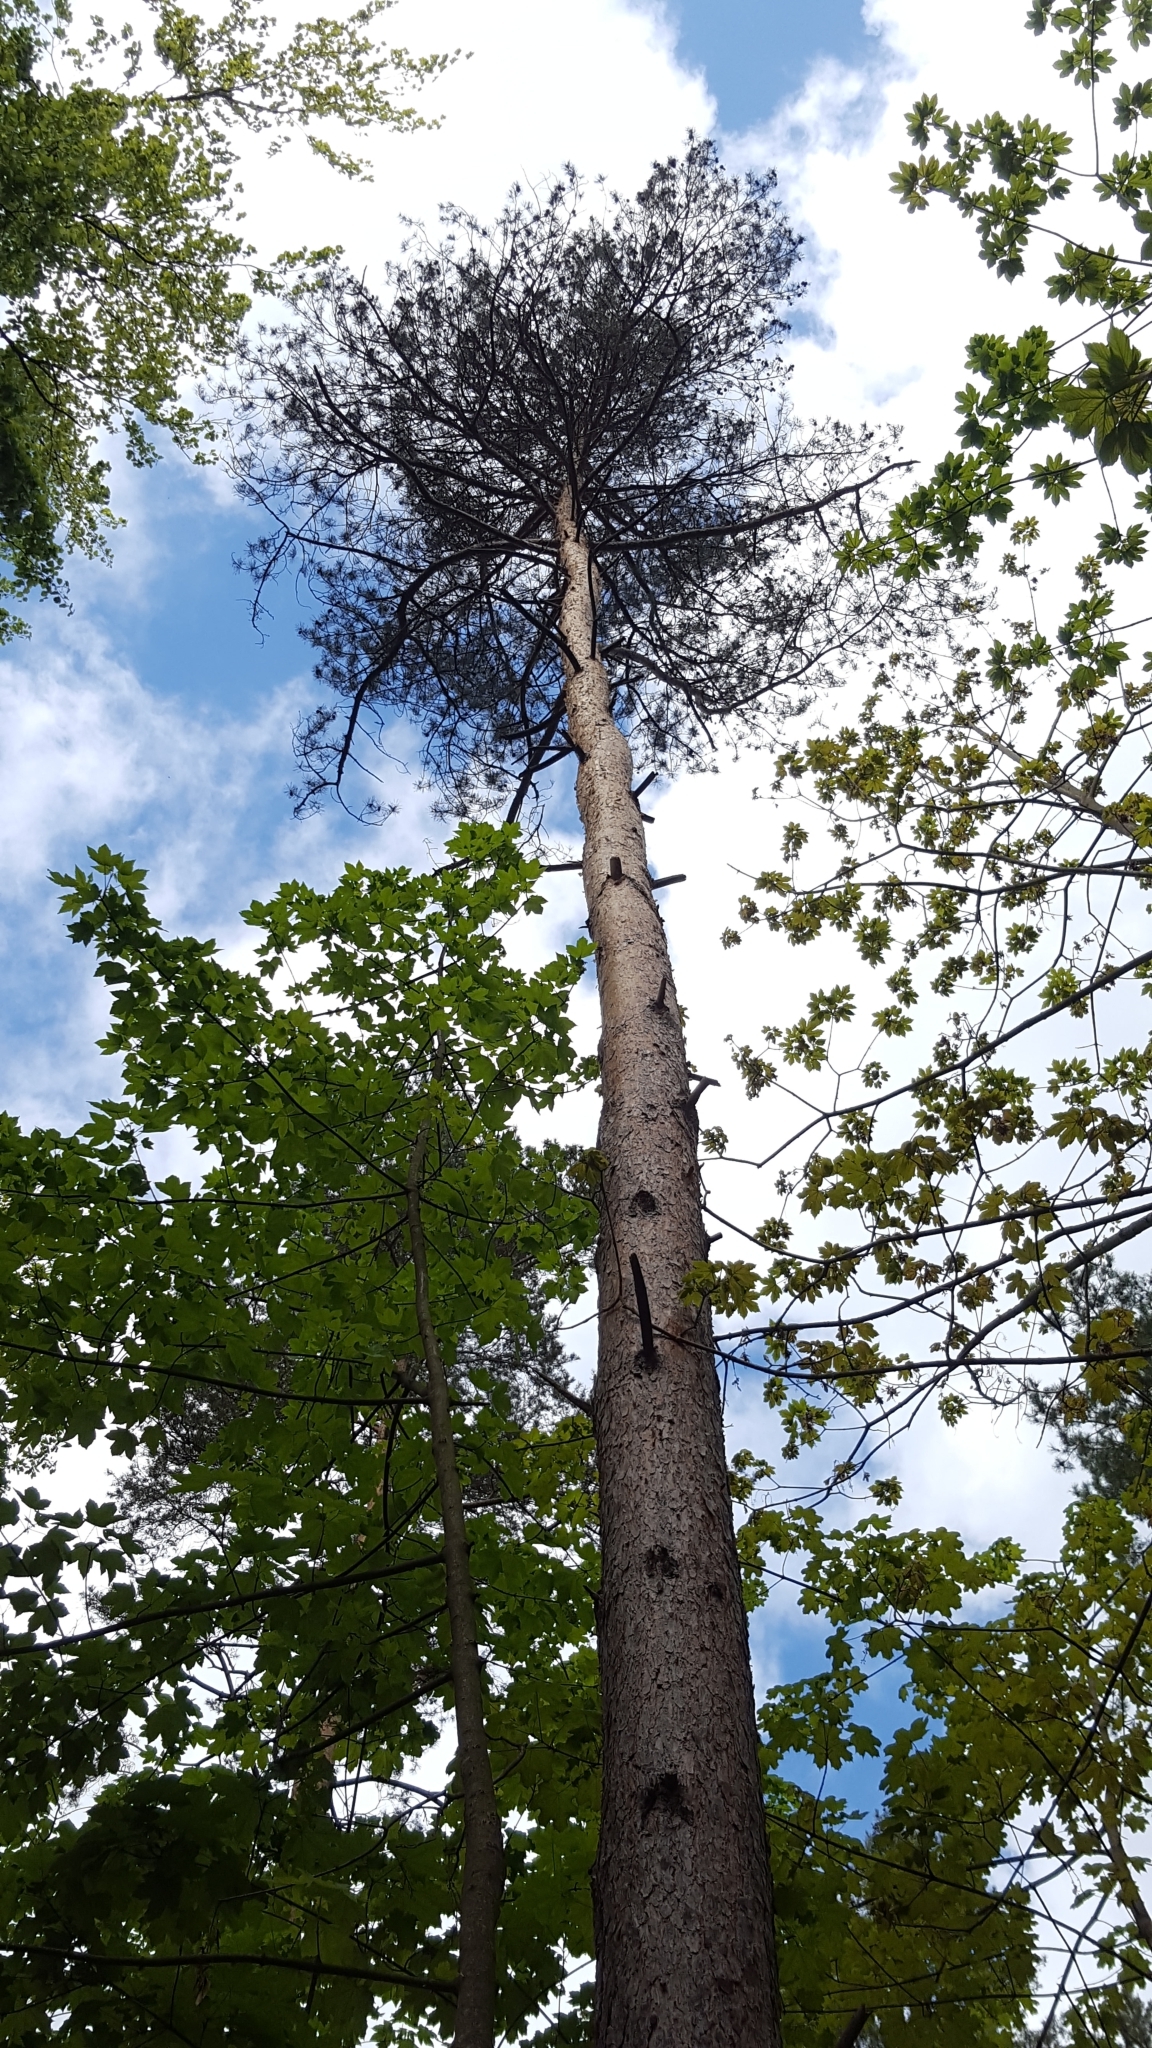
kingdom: Plantae
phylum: Tracheophyta
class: Pinopsida
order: Pinales
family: Pinaceae
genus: Pinus
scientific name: Pinus sylvestris
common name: Scots pine
